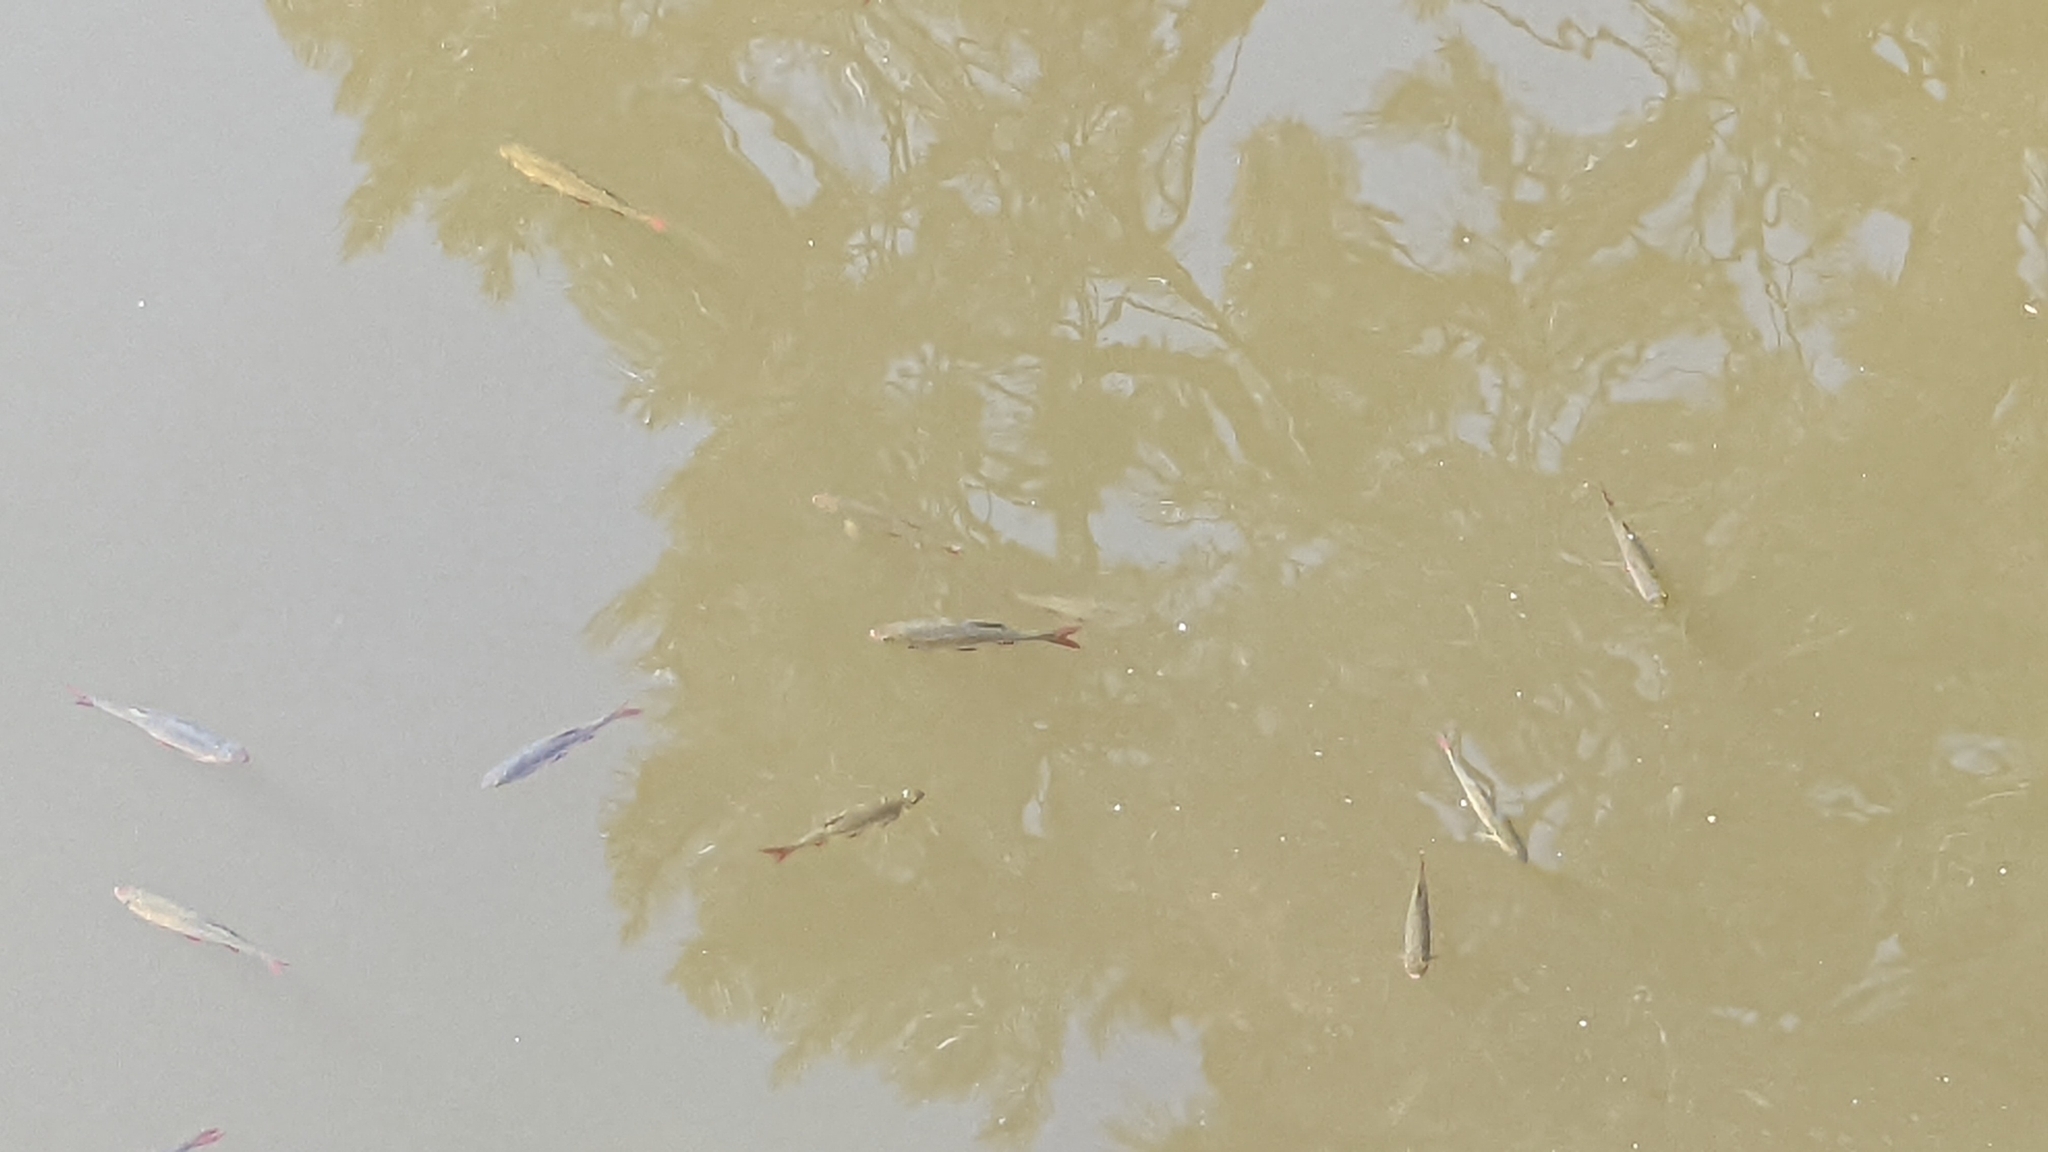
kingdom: Animalia
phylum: Chordata
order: Cypriniformes
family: Cyprinidae
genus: Scardinius
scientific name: Scardinius erythrophthalmus
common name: Rudd
